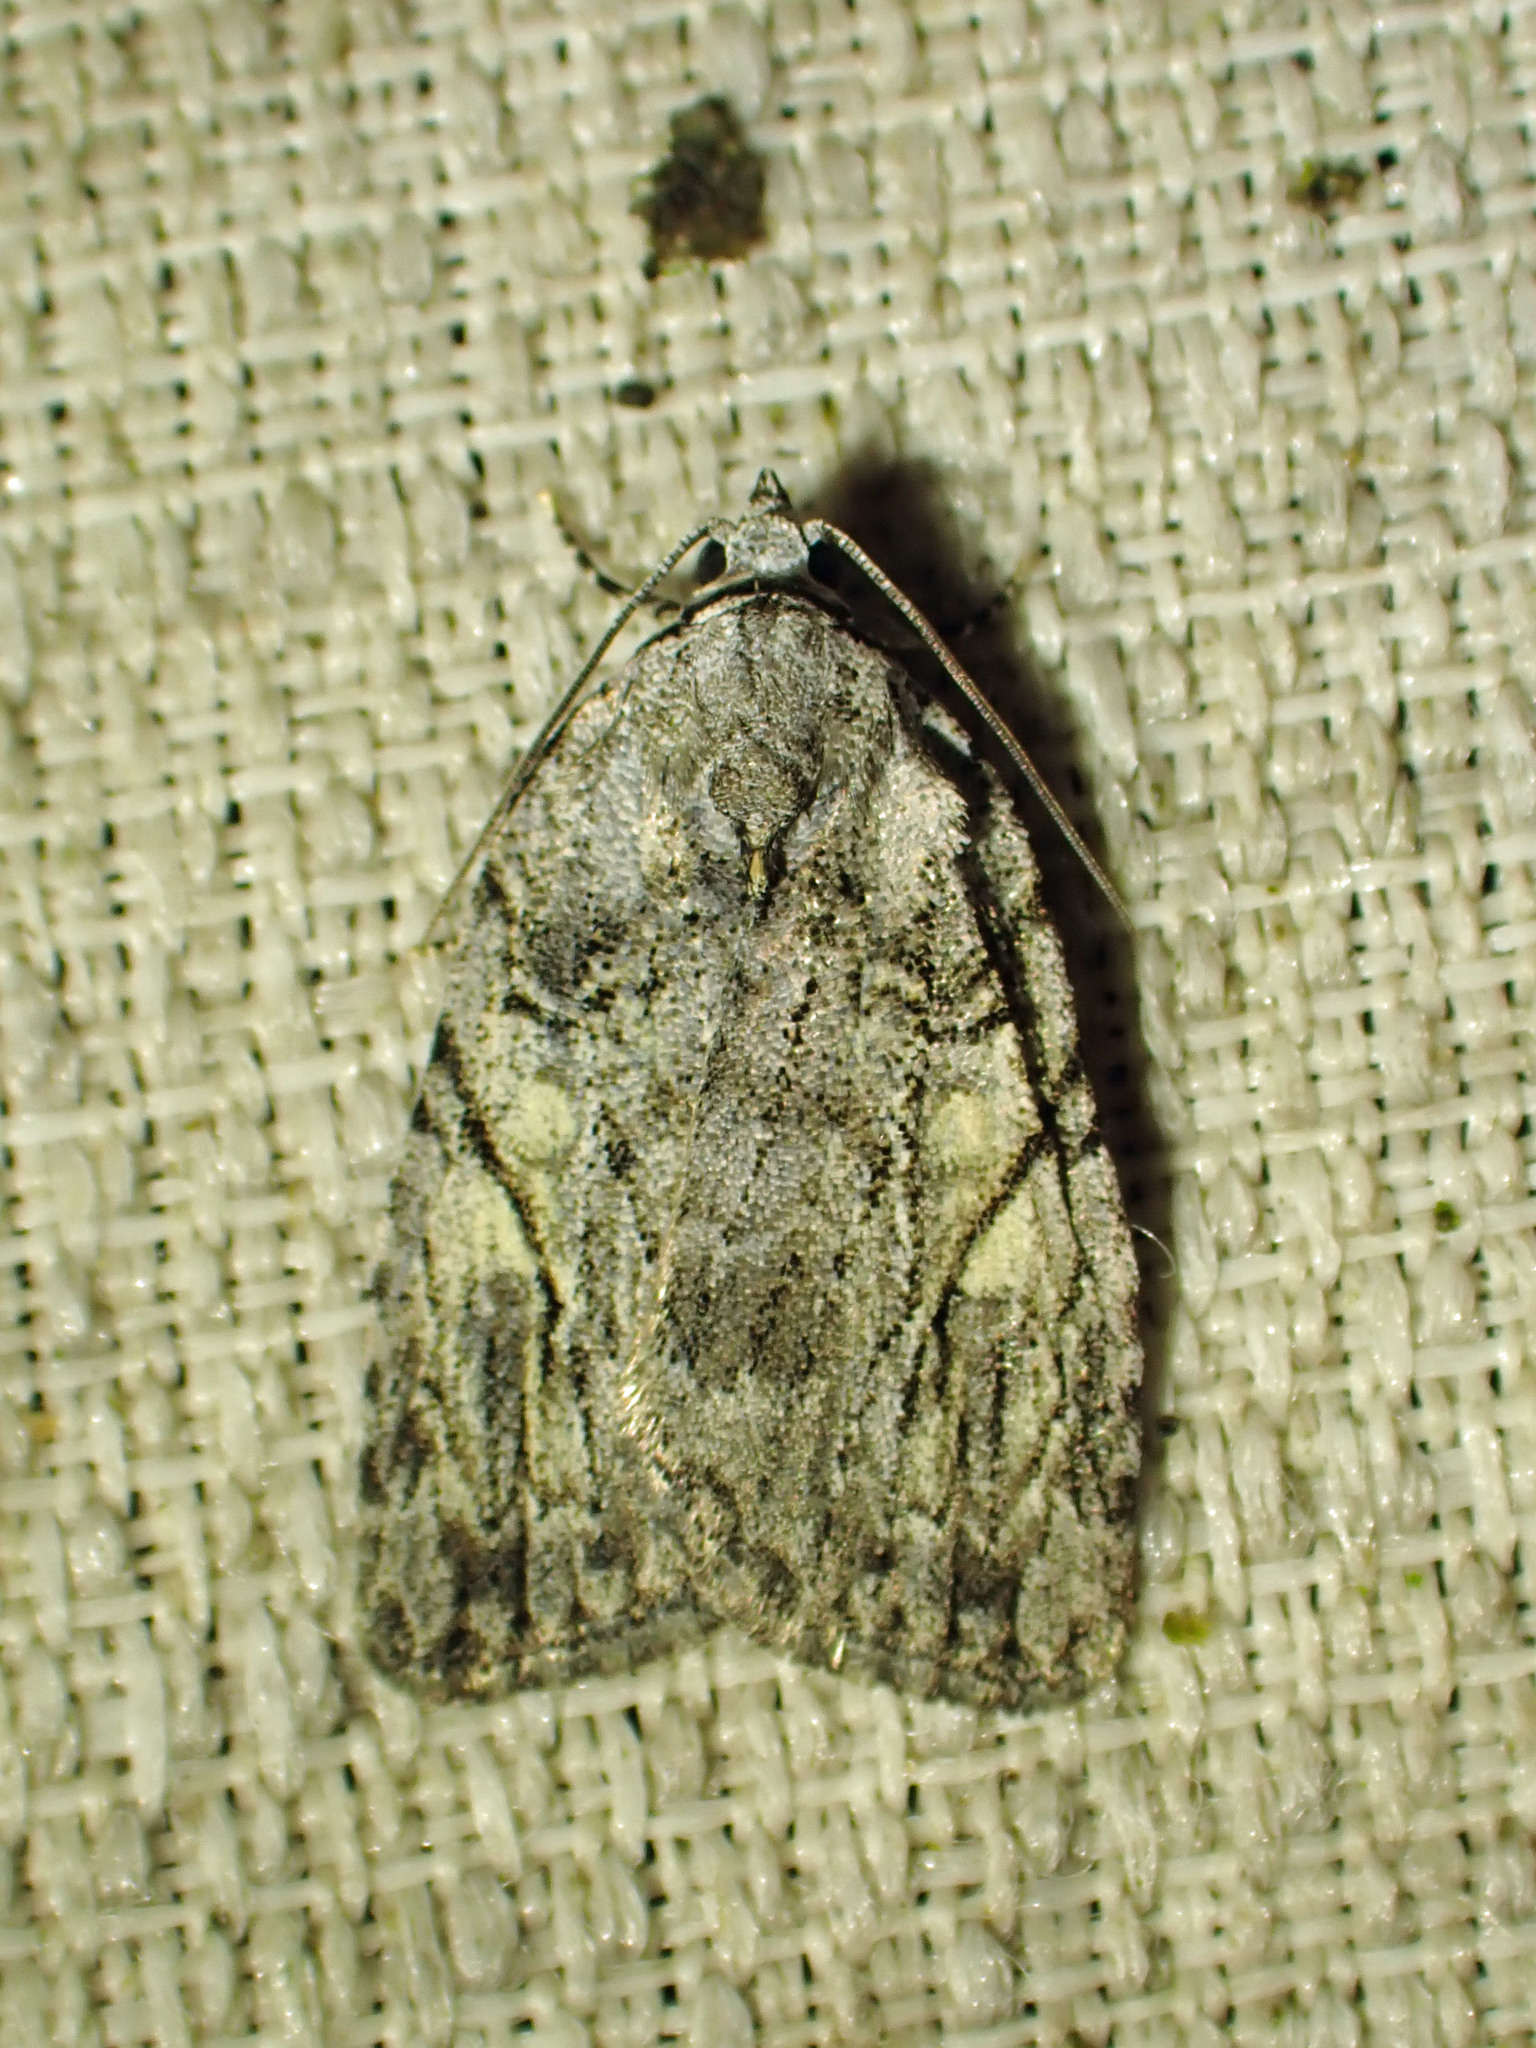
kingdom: Animalia
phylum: Arthropoda
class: Insecta
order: Lepidoptera
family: Noctuidae
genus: Balsa
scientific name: Balsa labecula
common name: White-blotched balsa moth
